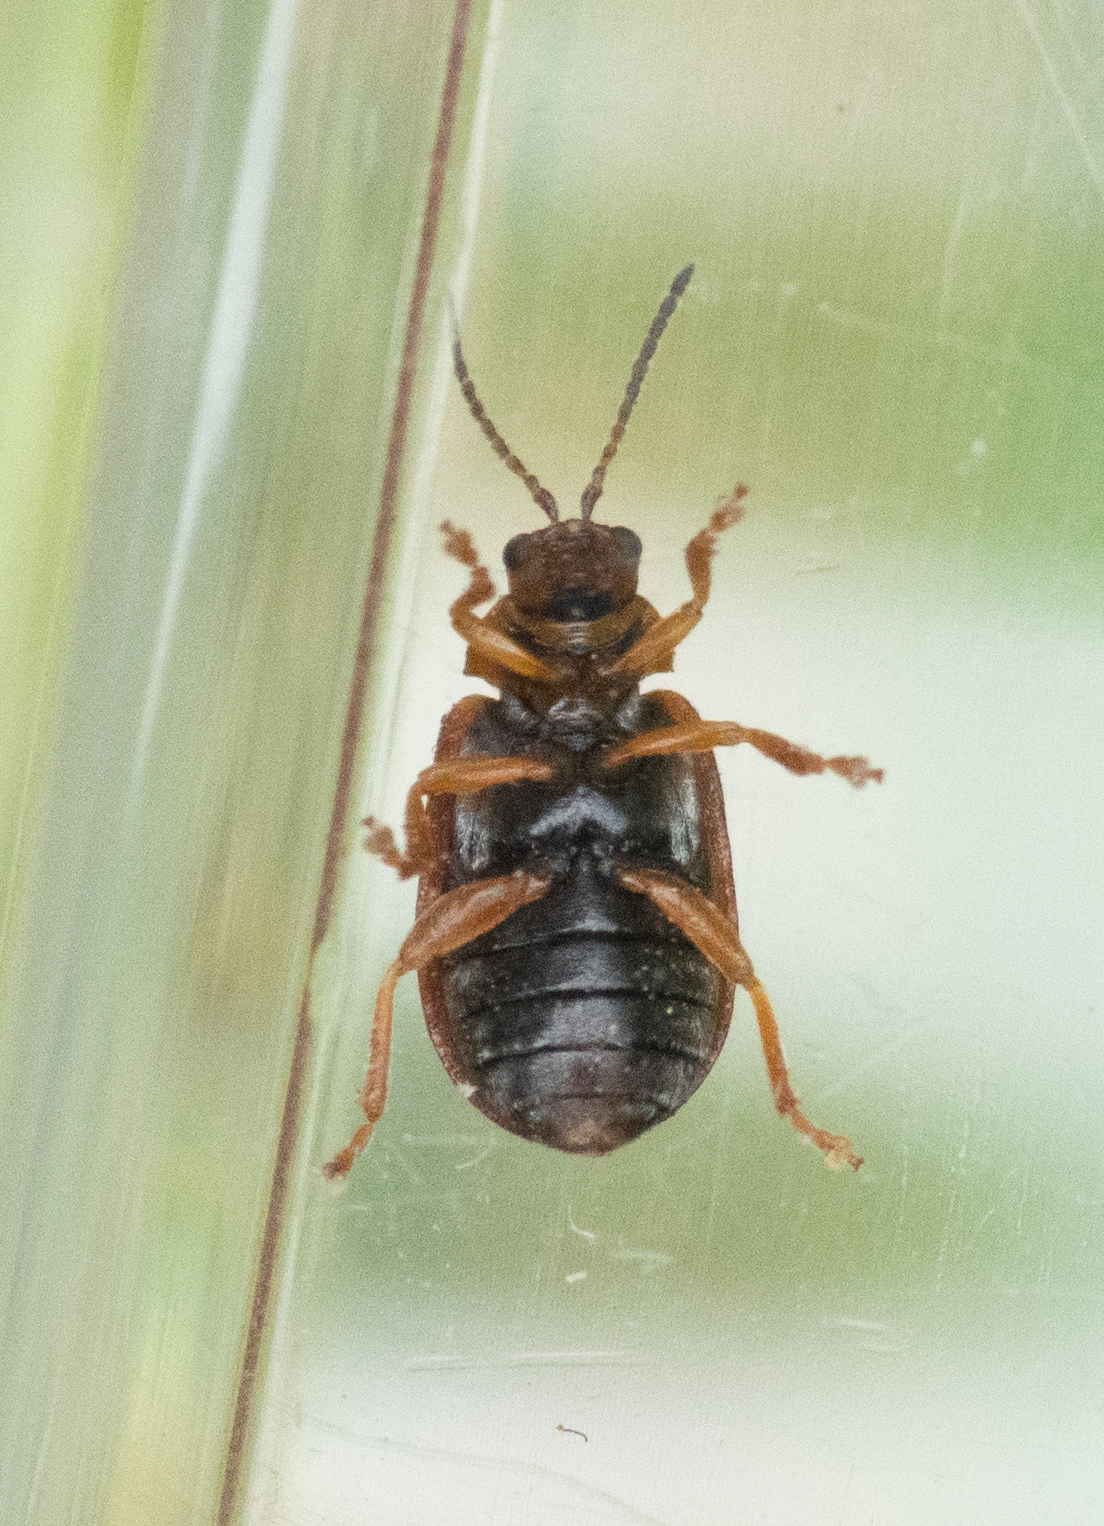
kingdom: Animalia
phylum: Arthropoda
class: Insecta
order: Coleoptera
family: Chrysomelidae
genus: Lochmaea
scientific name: Lochmaea crataegi
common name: Hawthorn leaf beetle
